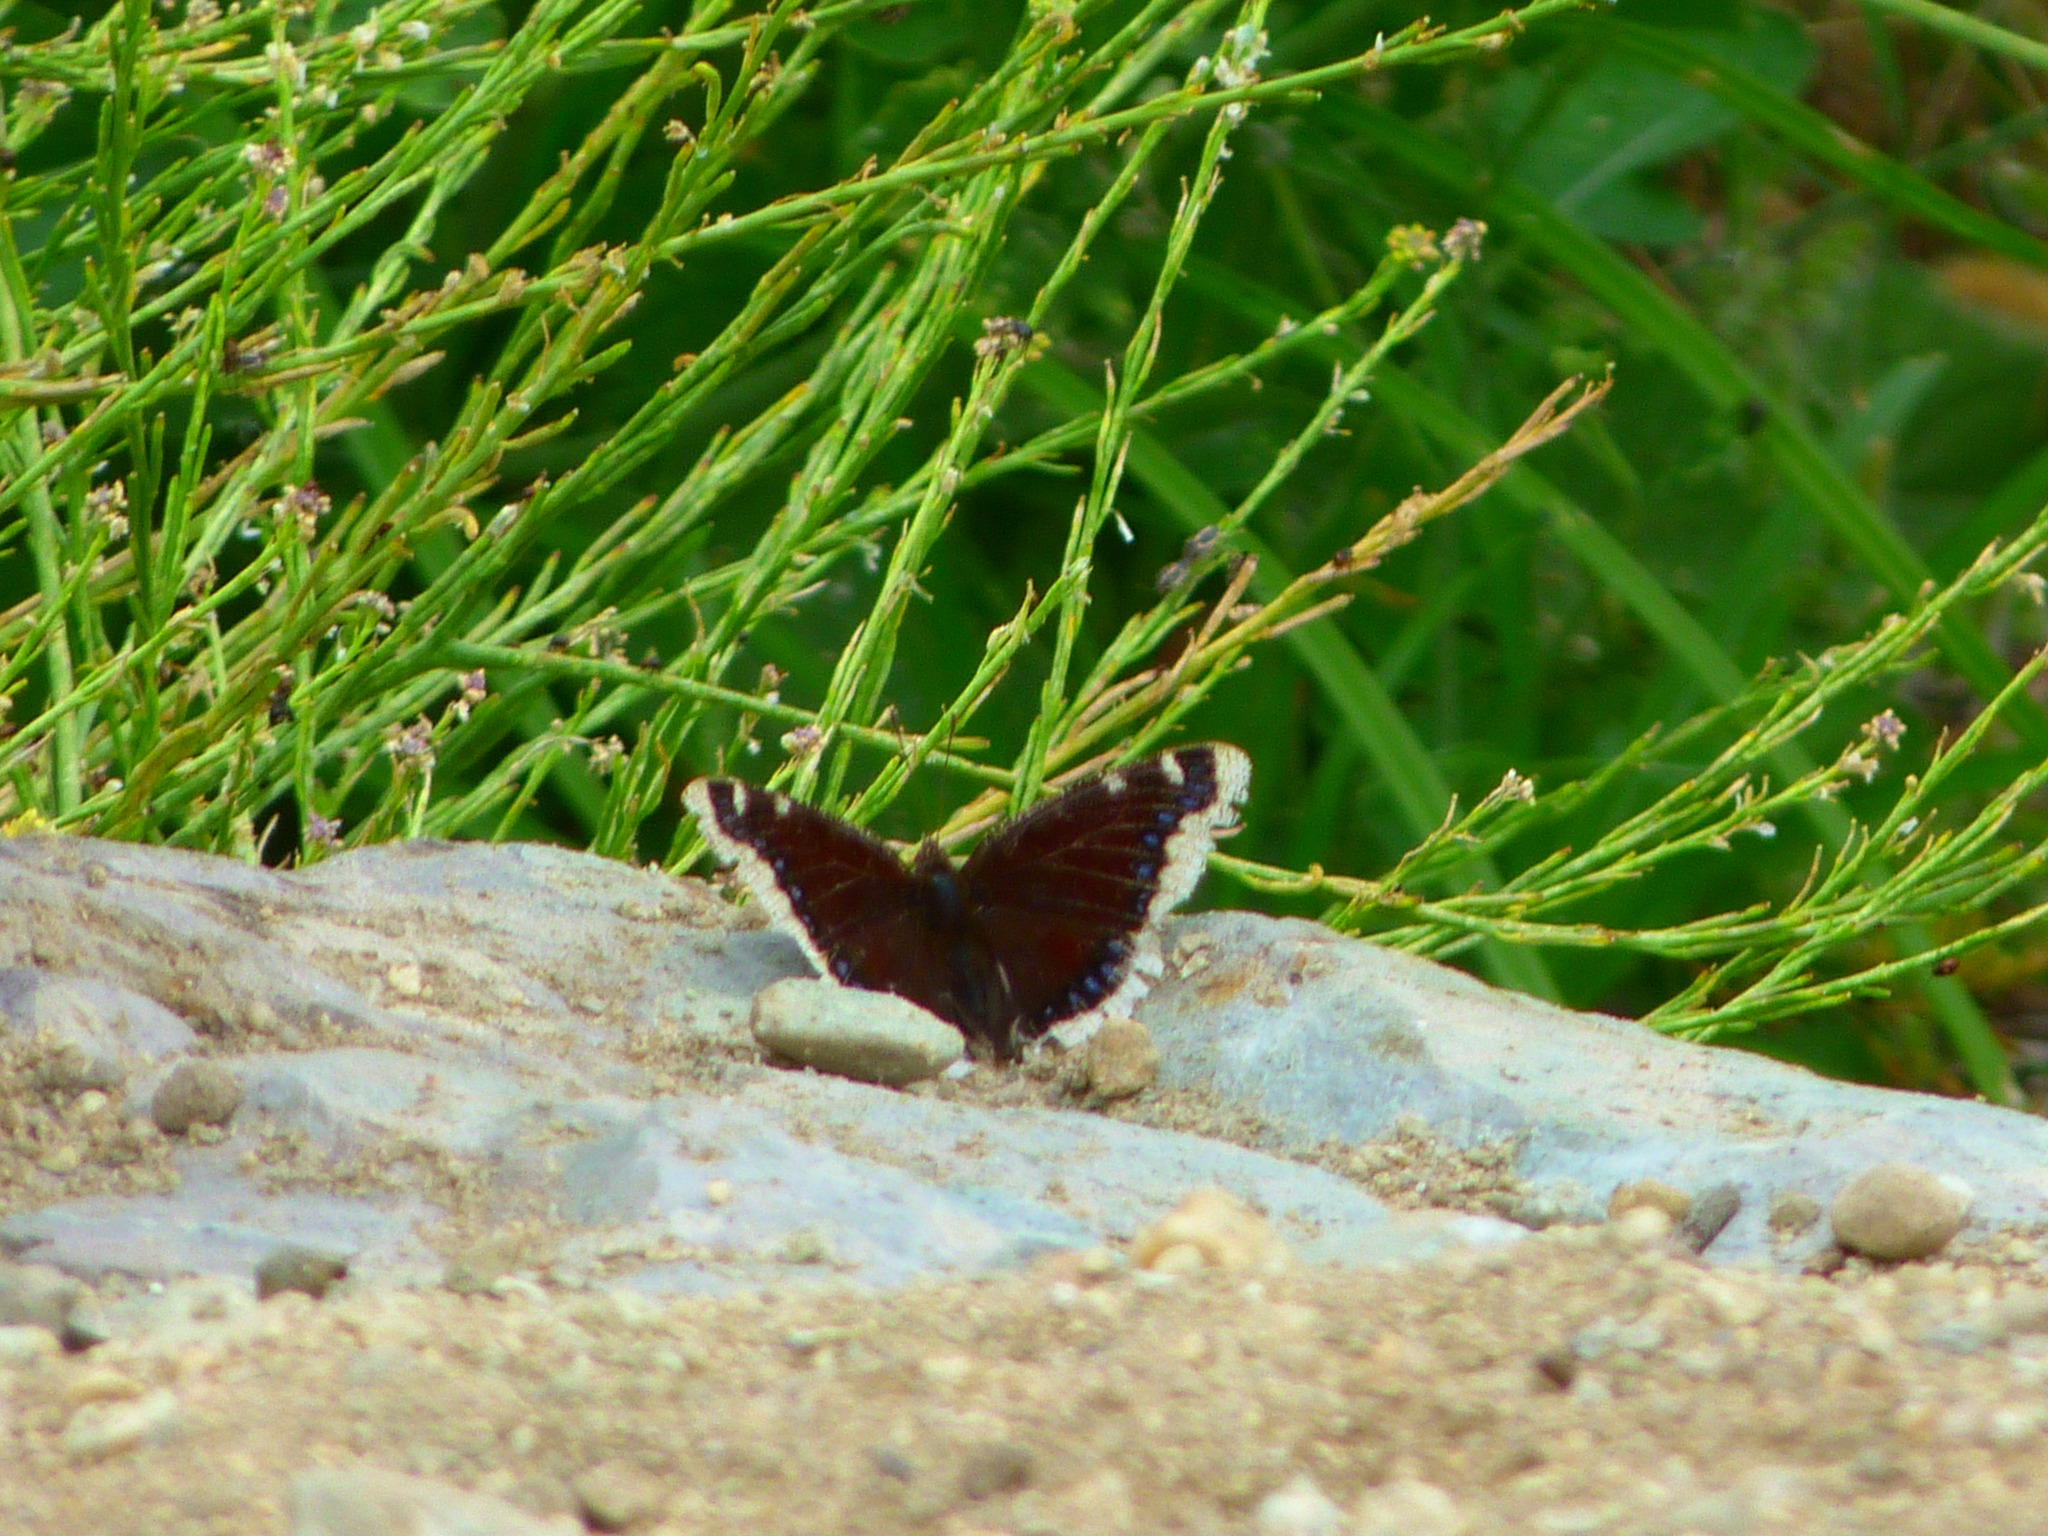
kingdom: Animalia
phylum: Arthropoda
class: Insecta
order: Lepidoptera
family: Nymphalidae
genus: Nymphalis
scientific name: Nymphalis antiopa
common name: Camberwell beauty
